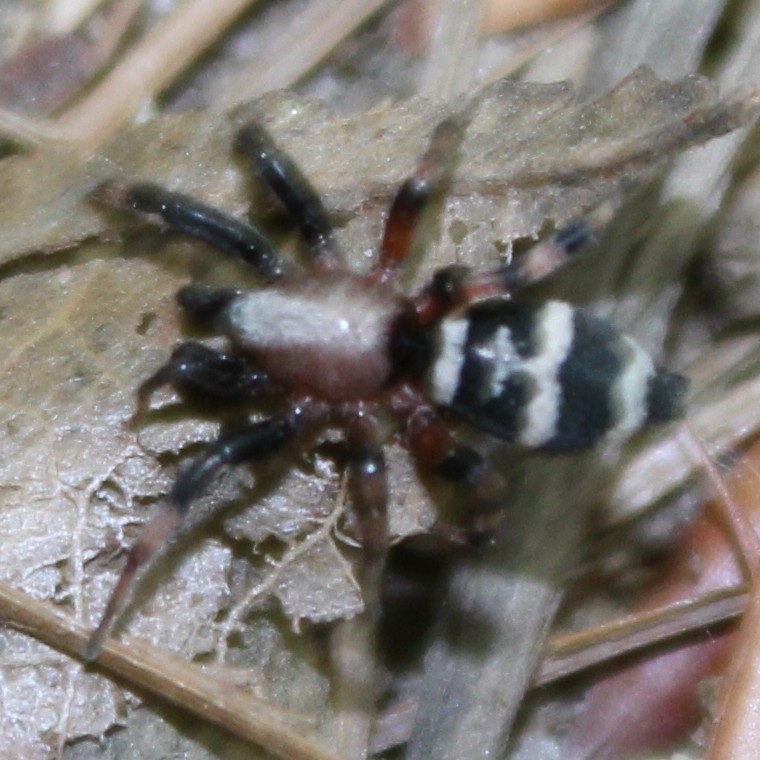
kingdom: Animalia
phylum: Arthropoda
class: Arachnida
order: Araneae
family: Gnaphosidae
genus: Sergiolus
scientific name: Sergiolus capulatus
